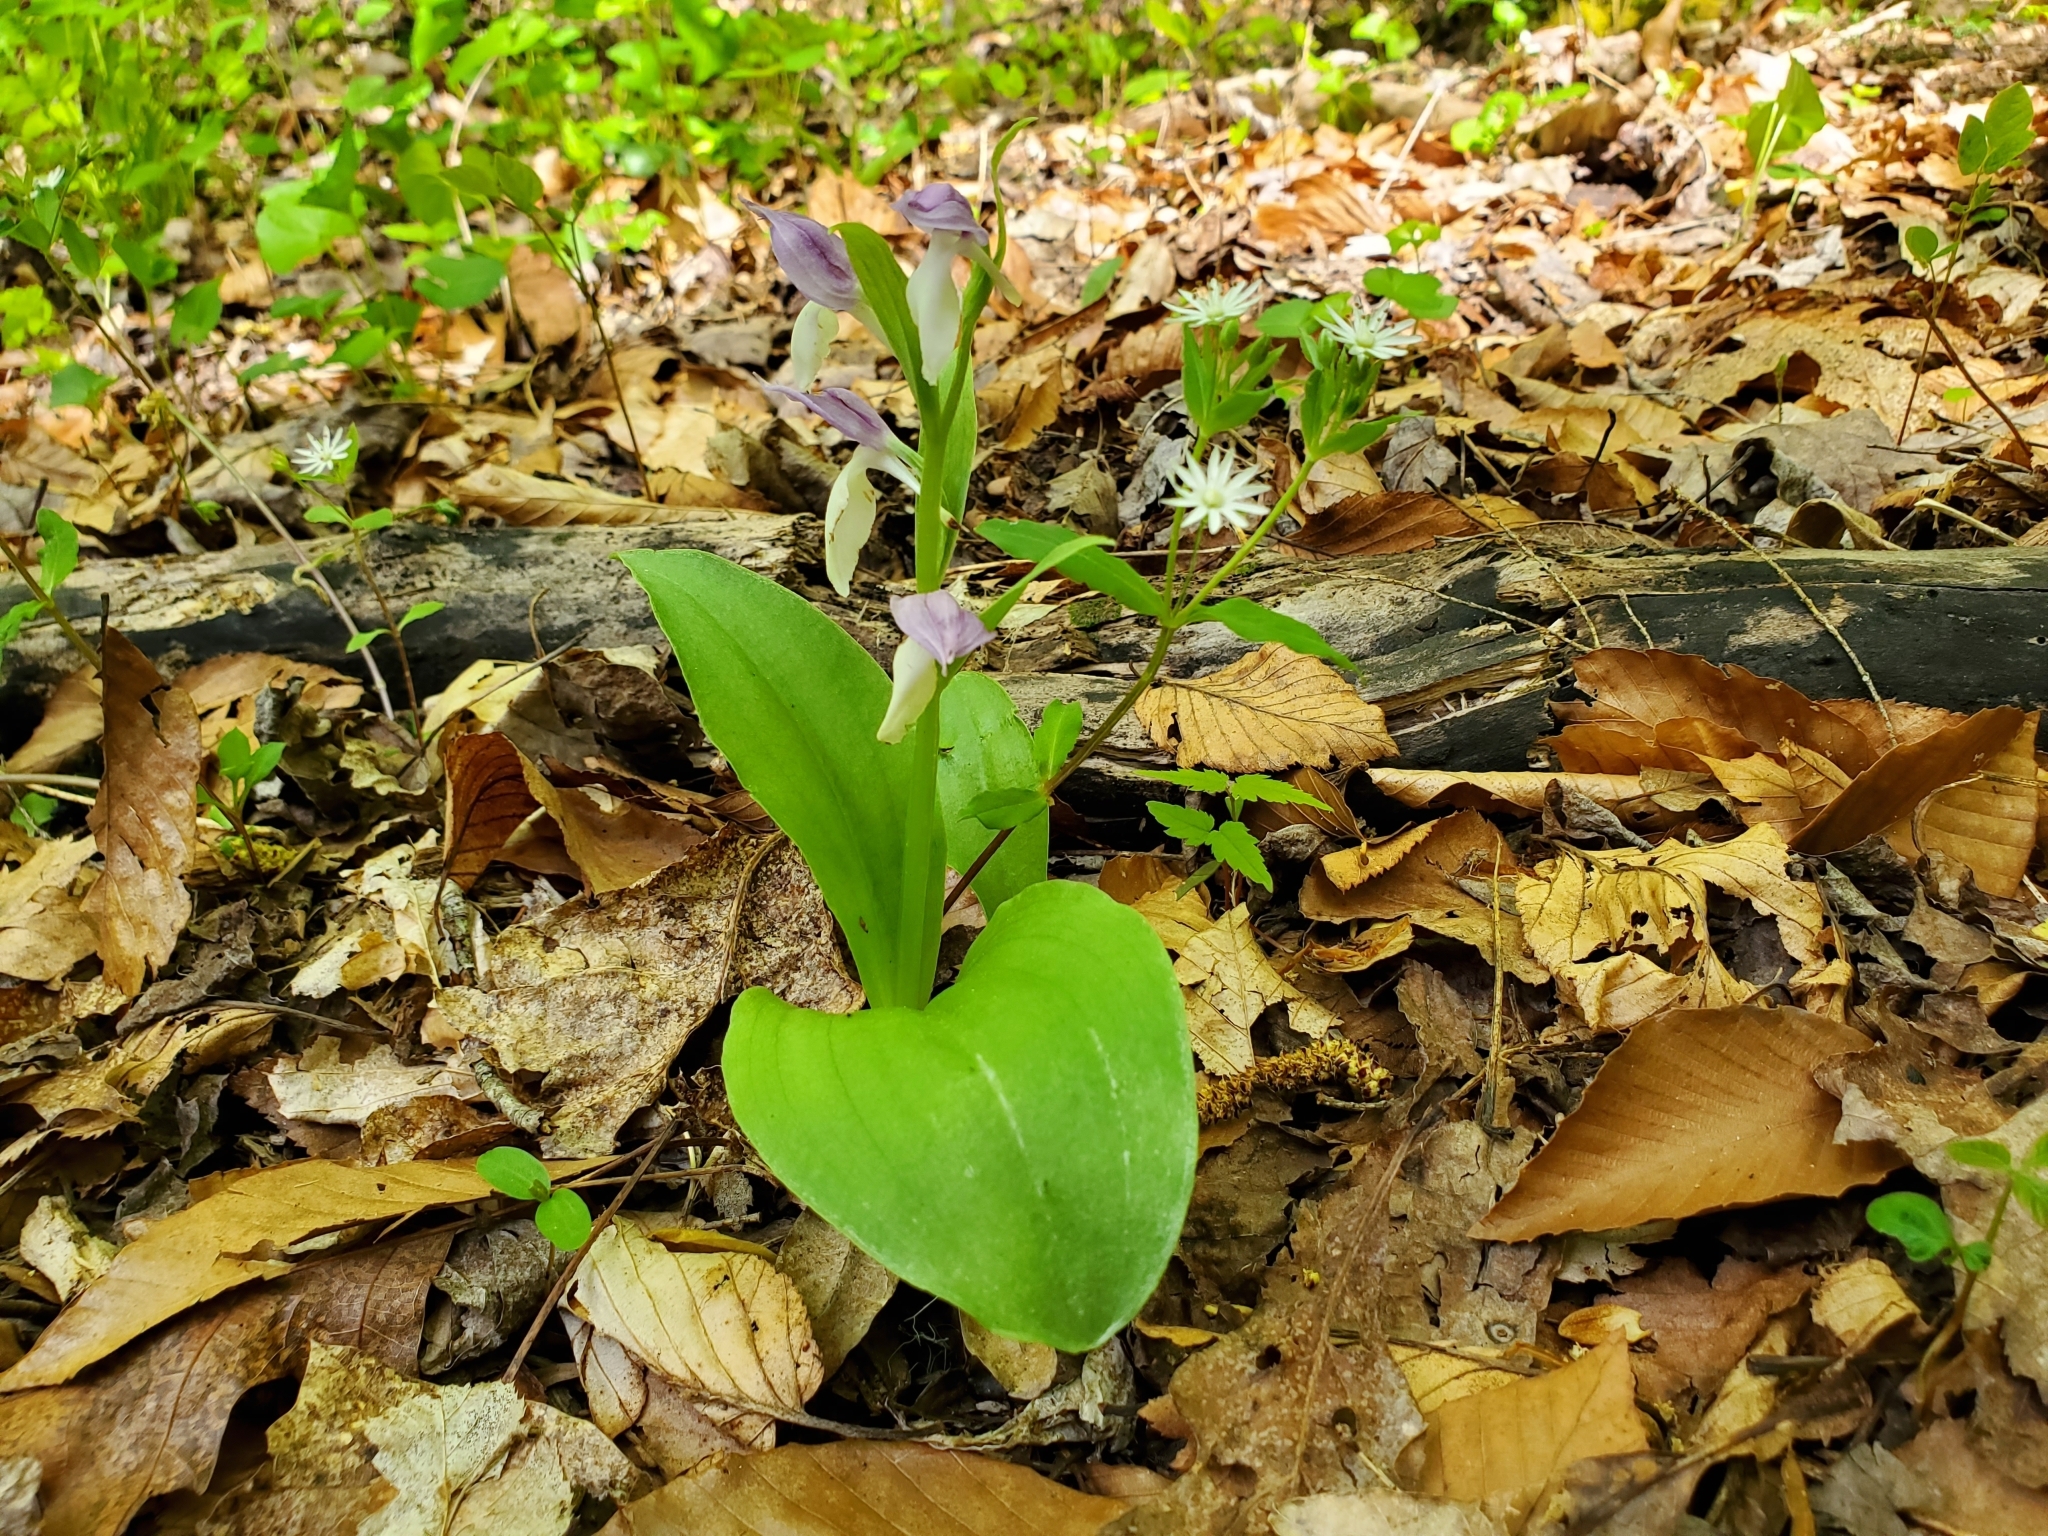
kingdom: Plantae
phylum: Tracheophyta
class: Liliopsida
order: Asparagales
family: Orchidaceae
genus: Galearis
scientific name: Galearis spectabilis
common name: Purple-hooded orchis
